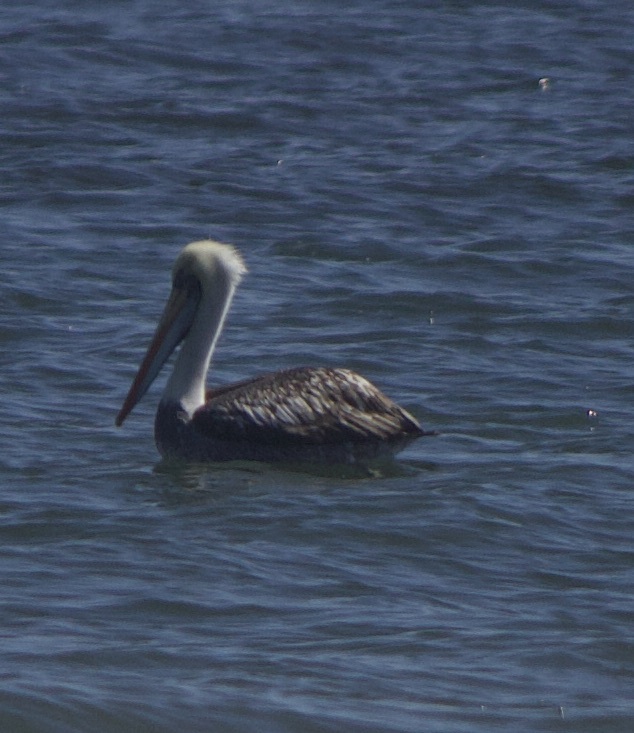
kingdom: Animalia
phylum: Chordata
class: Aves
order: Pelecaniformes
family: Pelecanidae
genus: Pelecanus
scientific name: Pelecanus thagus
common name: Peruvian pelican
